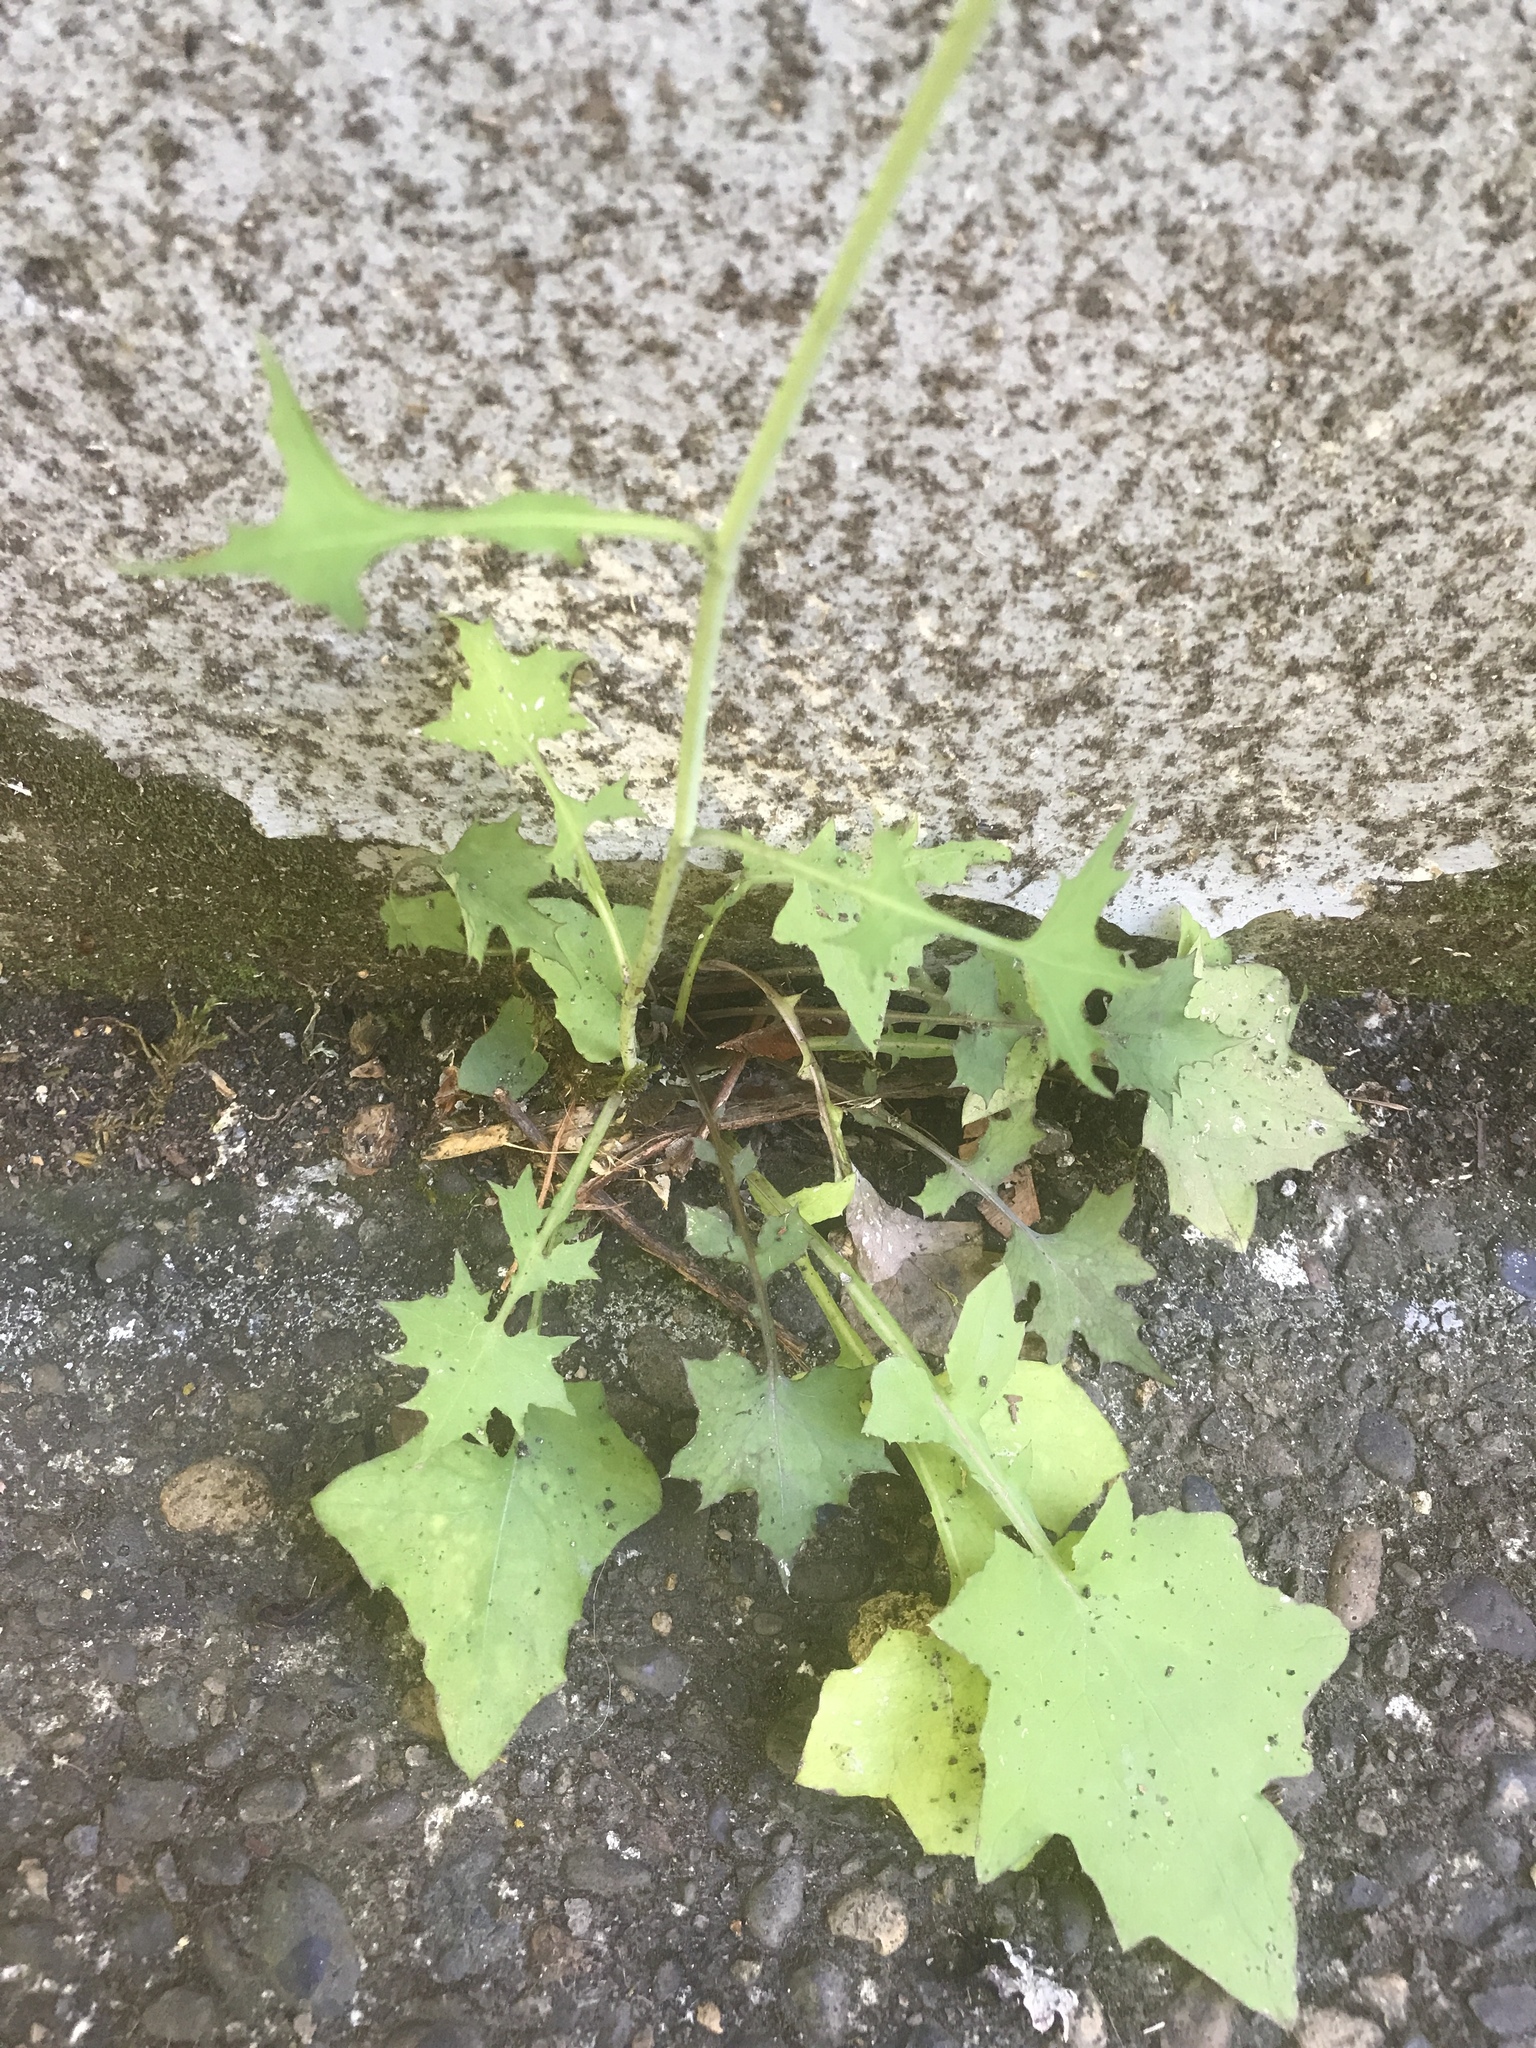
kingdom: Plantae
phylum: Tracheophyta
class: Magnoliopsida
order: Asterales
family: Asteraceae
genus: Mycelis
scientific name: Mycelis muralis
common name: Wall lettuce
